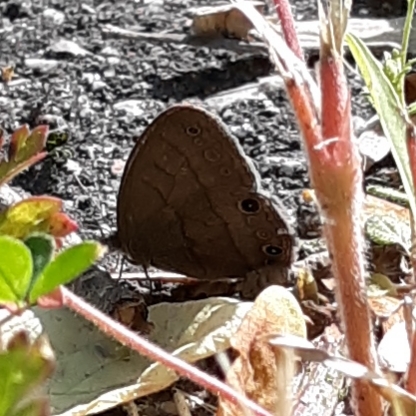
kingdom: Animalia
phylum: Arthropoda
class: Insecta
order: Lepidoptera
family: Nymphalidae
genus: Hermeuptychia
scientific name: Hermeuptychia hermes
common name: Hermes satyr
